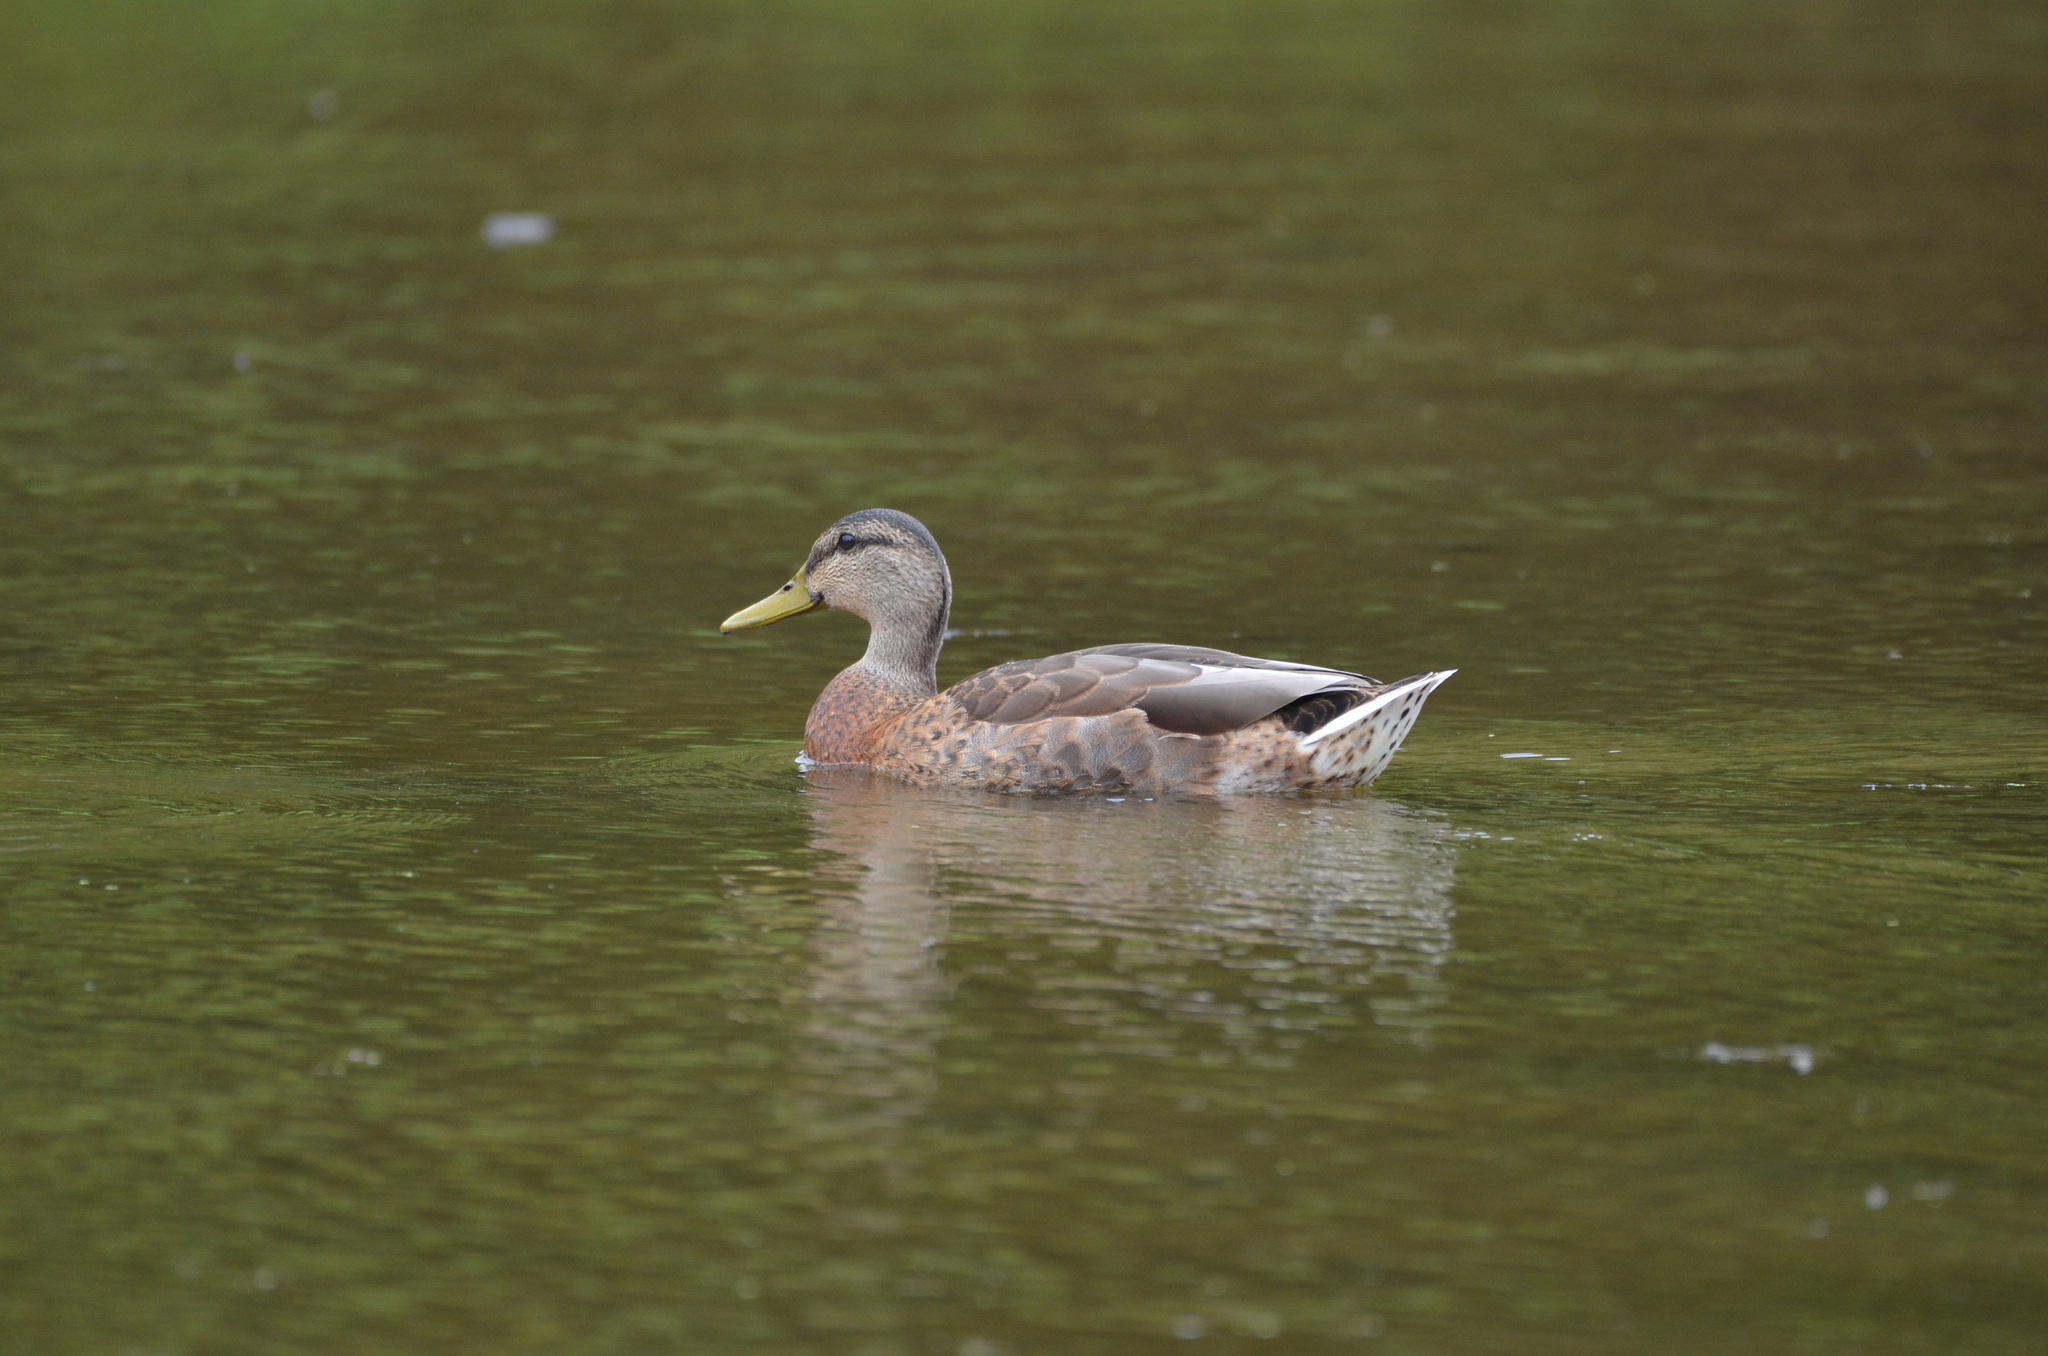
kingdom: Animalia
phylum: Chordata
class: Aves
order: Anseriformes
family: Anatidae
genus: Anas
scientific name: Anas platyrhynchos
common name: Mallard
